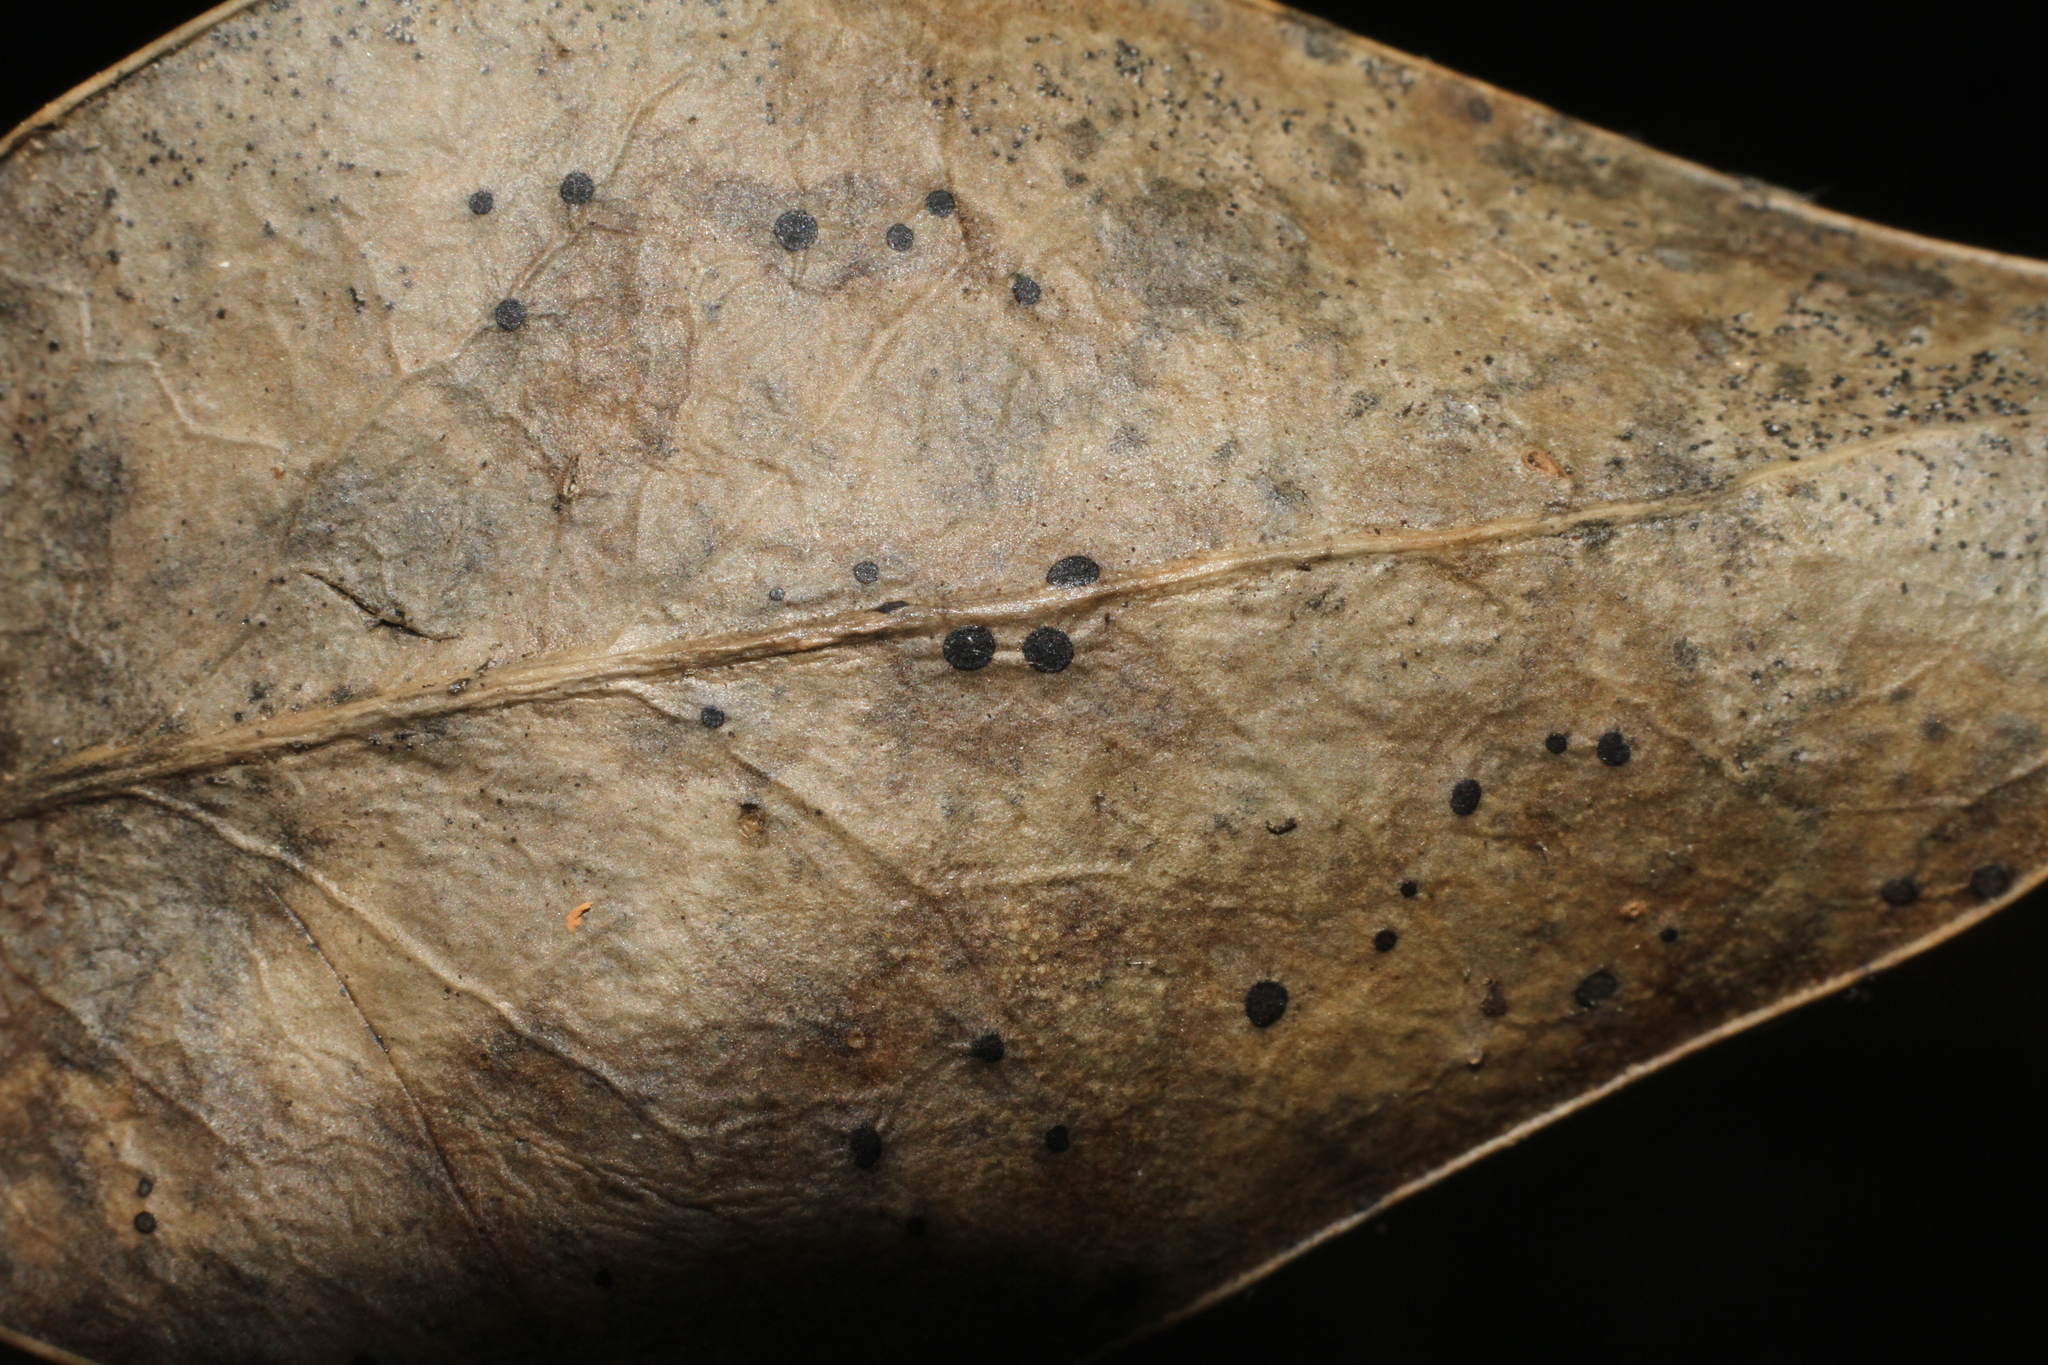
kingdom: Fungi
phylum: Ascomycota
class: Leotiomycetes
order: Phacidiales
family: Phacidiaceae
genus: Phacidium
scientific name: Phacidium lauri
